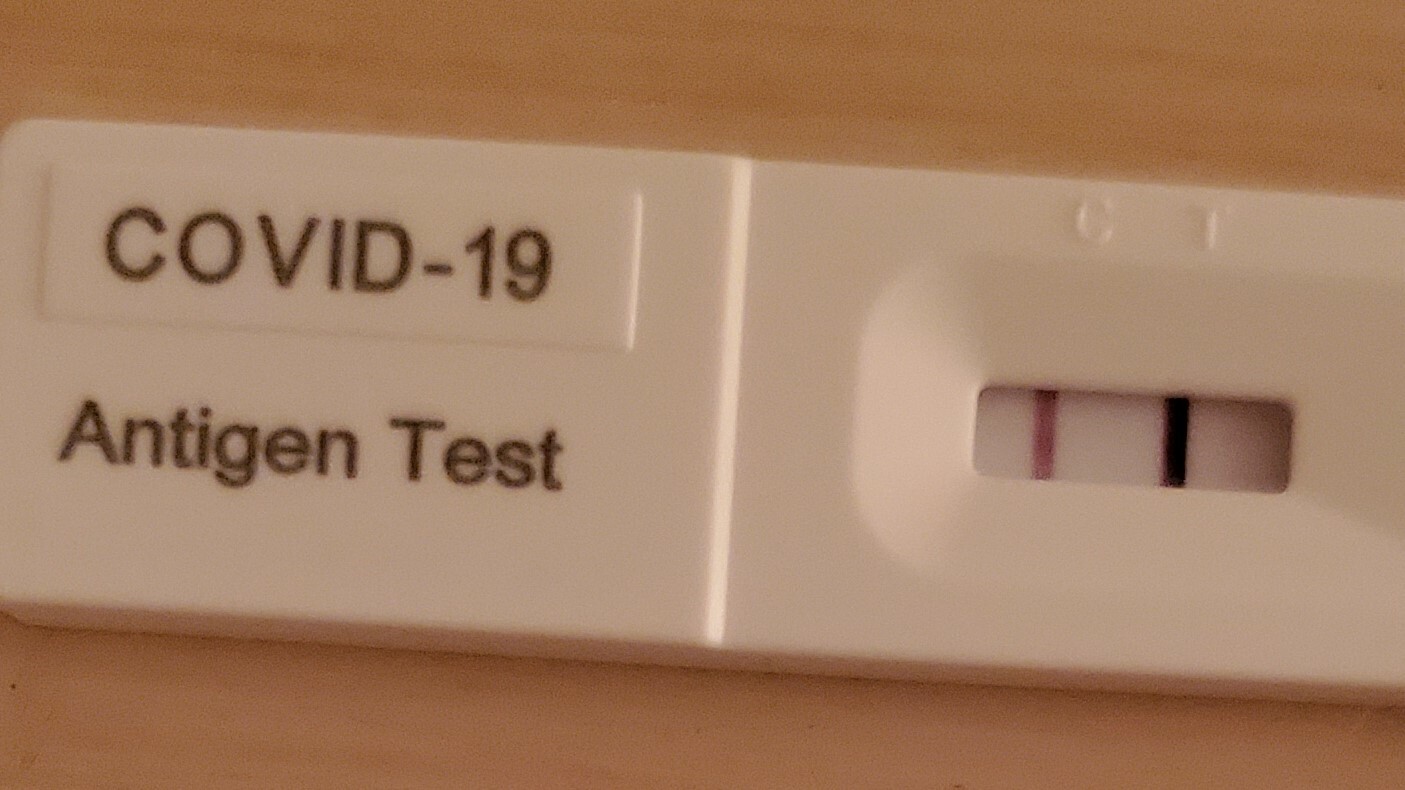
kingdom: Viruses
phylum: Pisuviricota
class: Pisoniviricetes
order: Nidovirales
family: Coronaviridae
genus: Betacoronavirus
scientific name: Betacoronavirus
